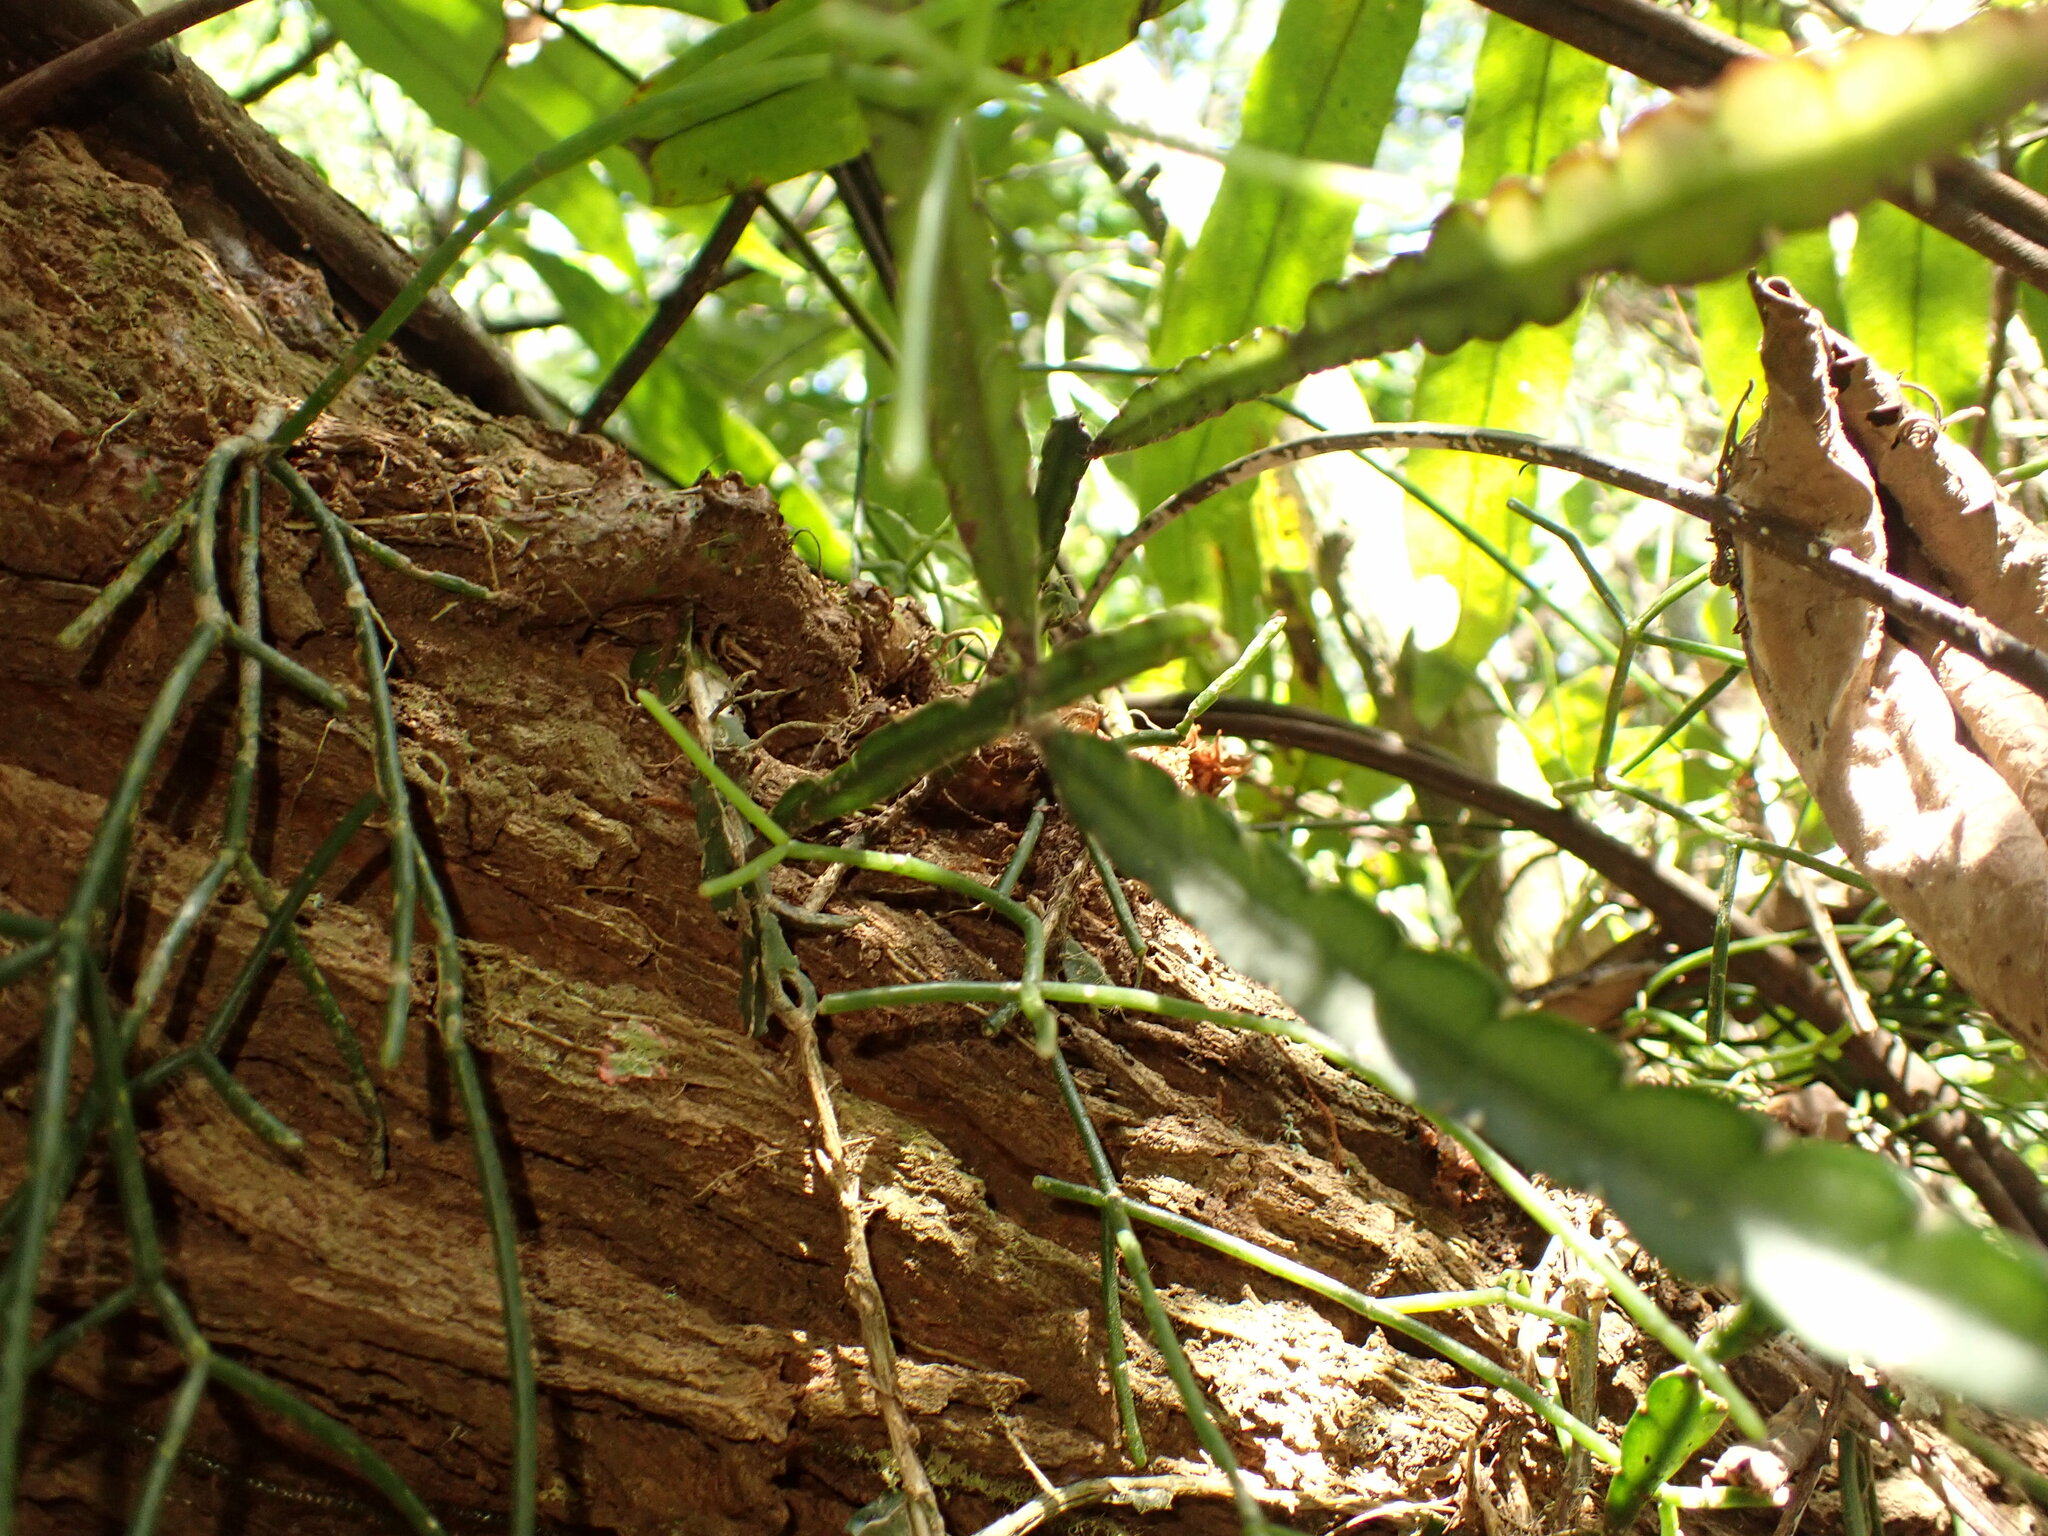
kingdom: Plantae
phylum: Tracheophyta
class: Magnoliopsida
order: Caryophyllales
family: Cactaceae
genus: Lepismium
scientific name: Lepismium cruciforme
